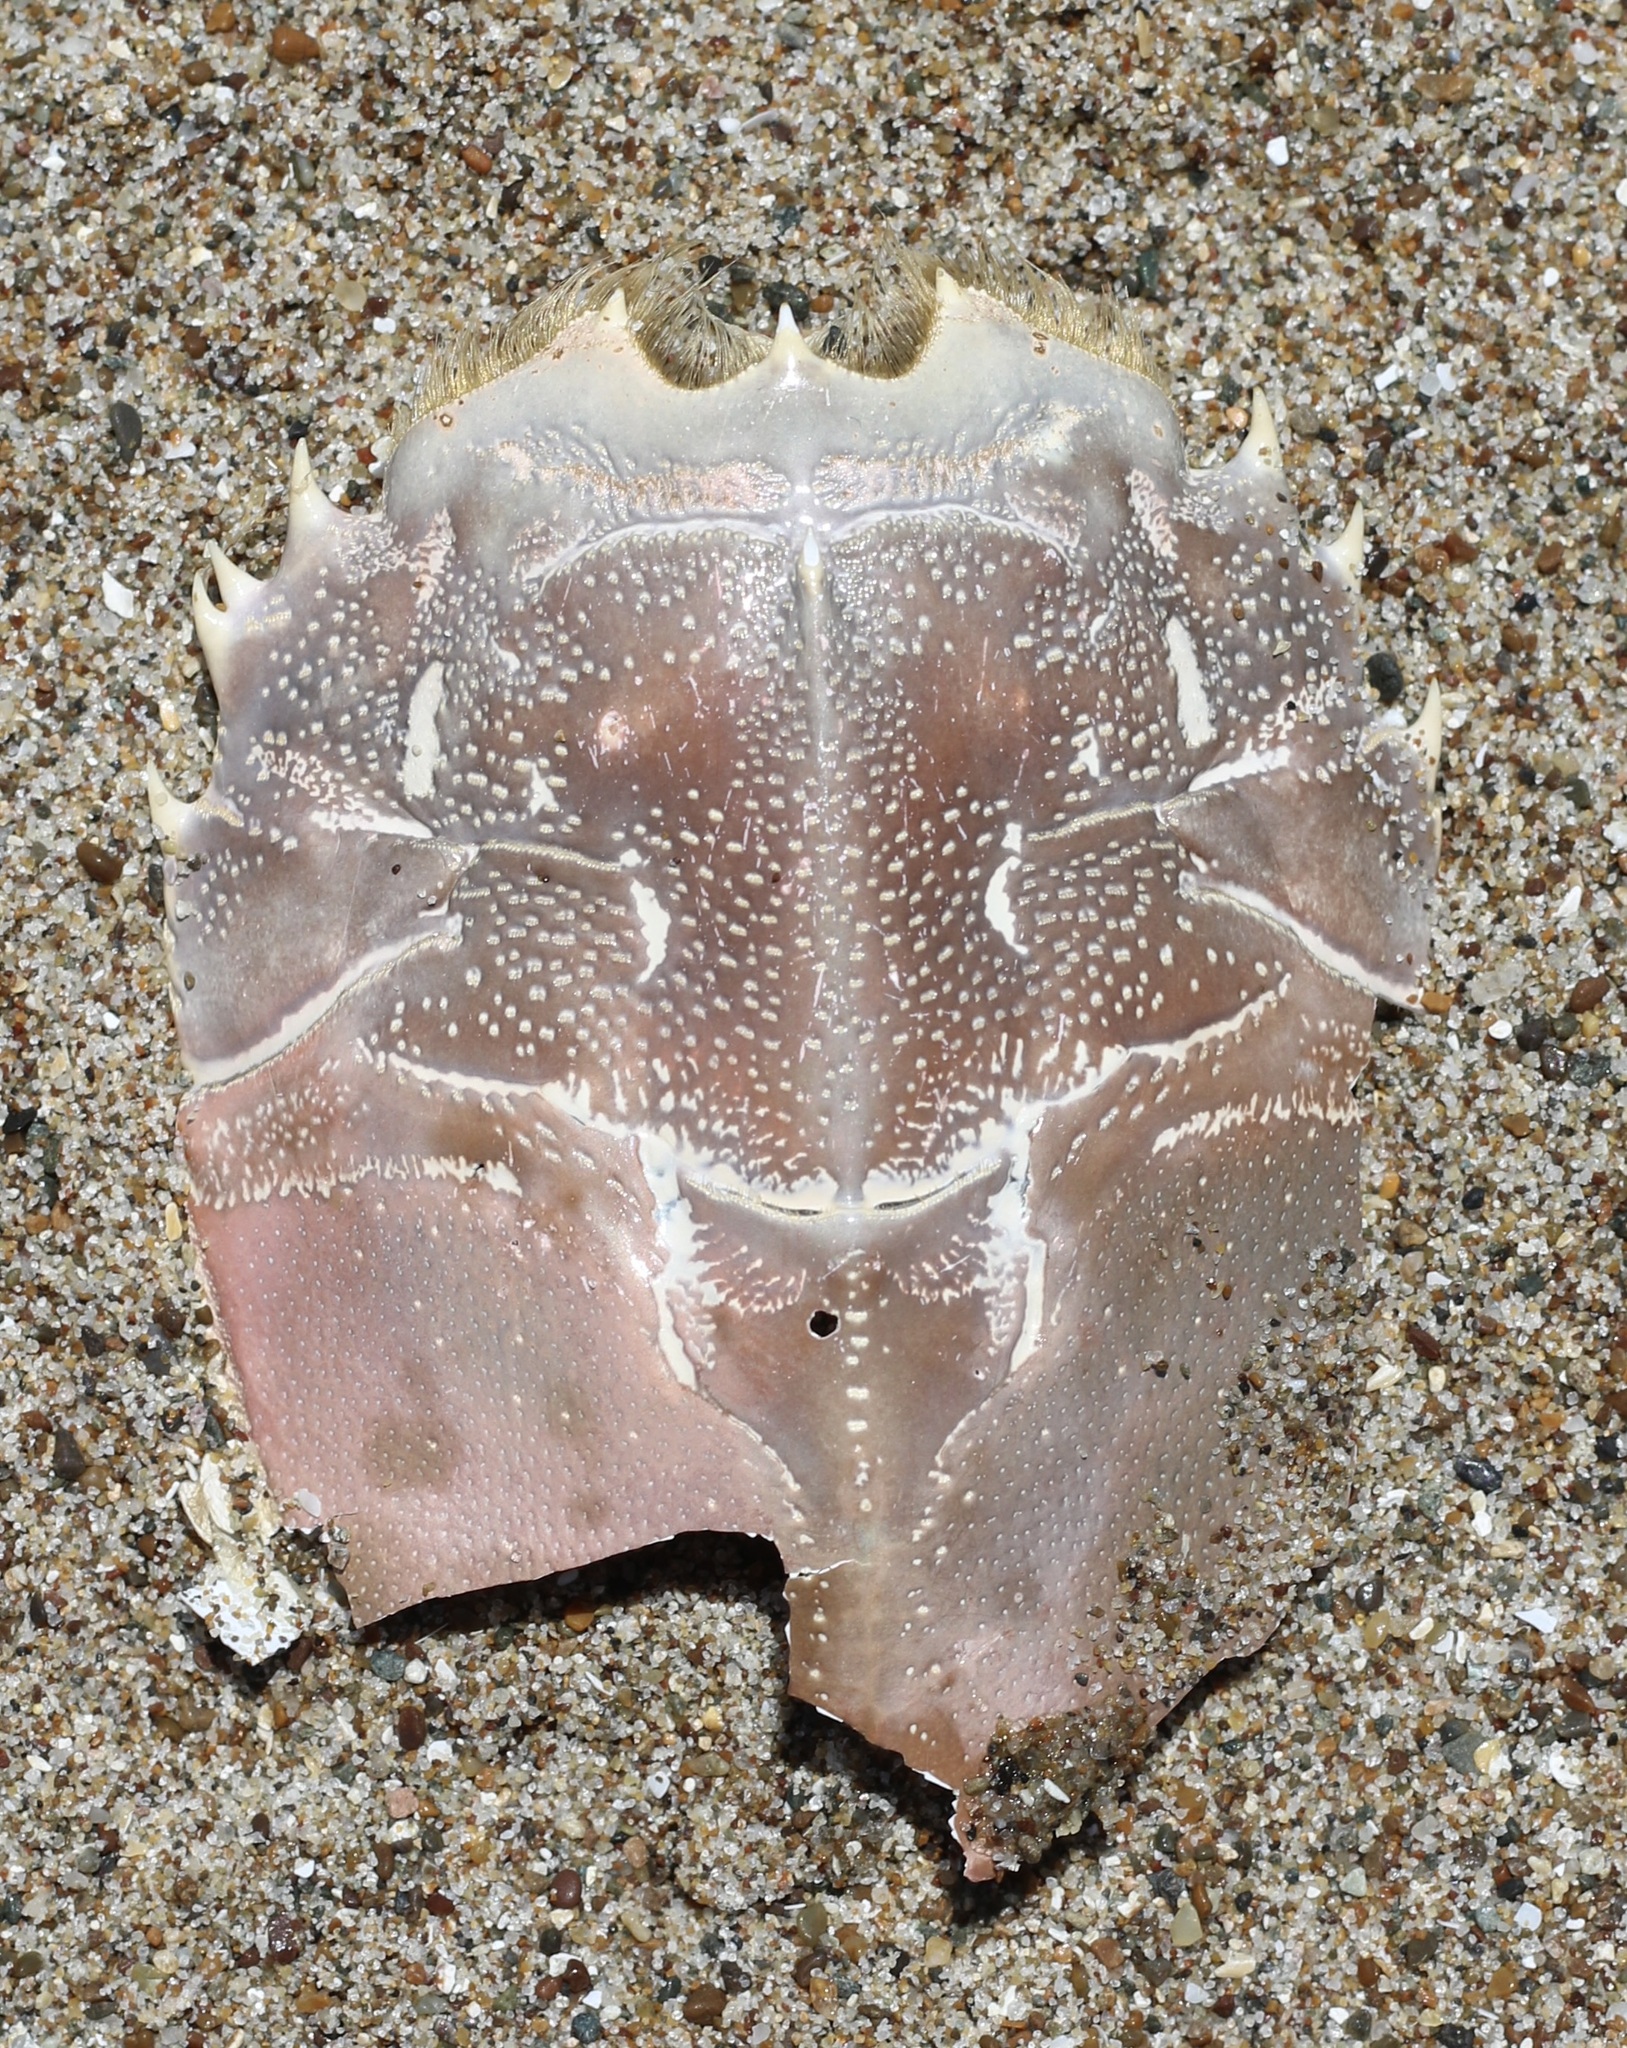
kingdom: Animalia
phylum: Arthropoda
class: Malacostraca
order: Decapoda
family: Blepharipodidae
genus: Blepharipoda
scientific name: Blepharipoda occidentalis
